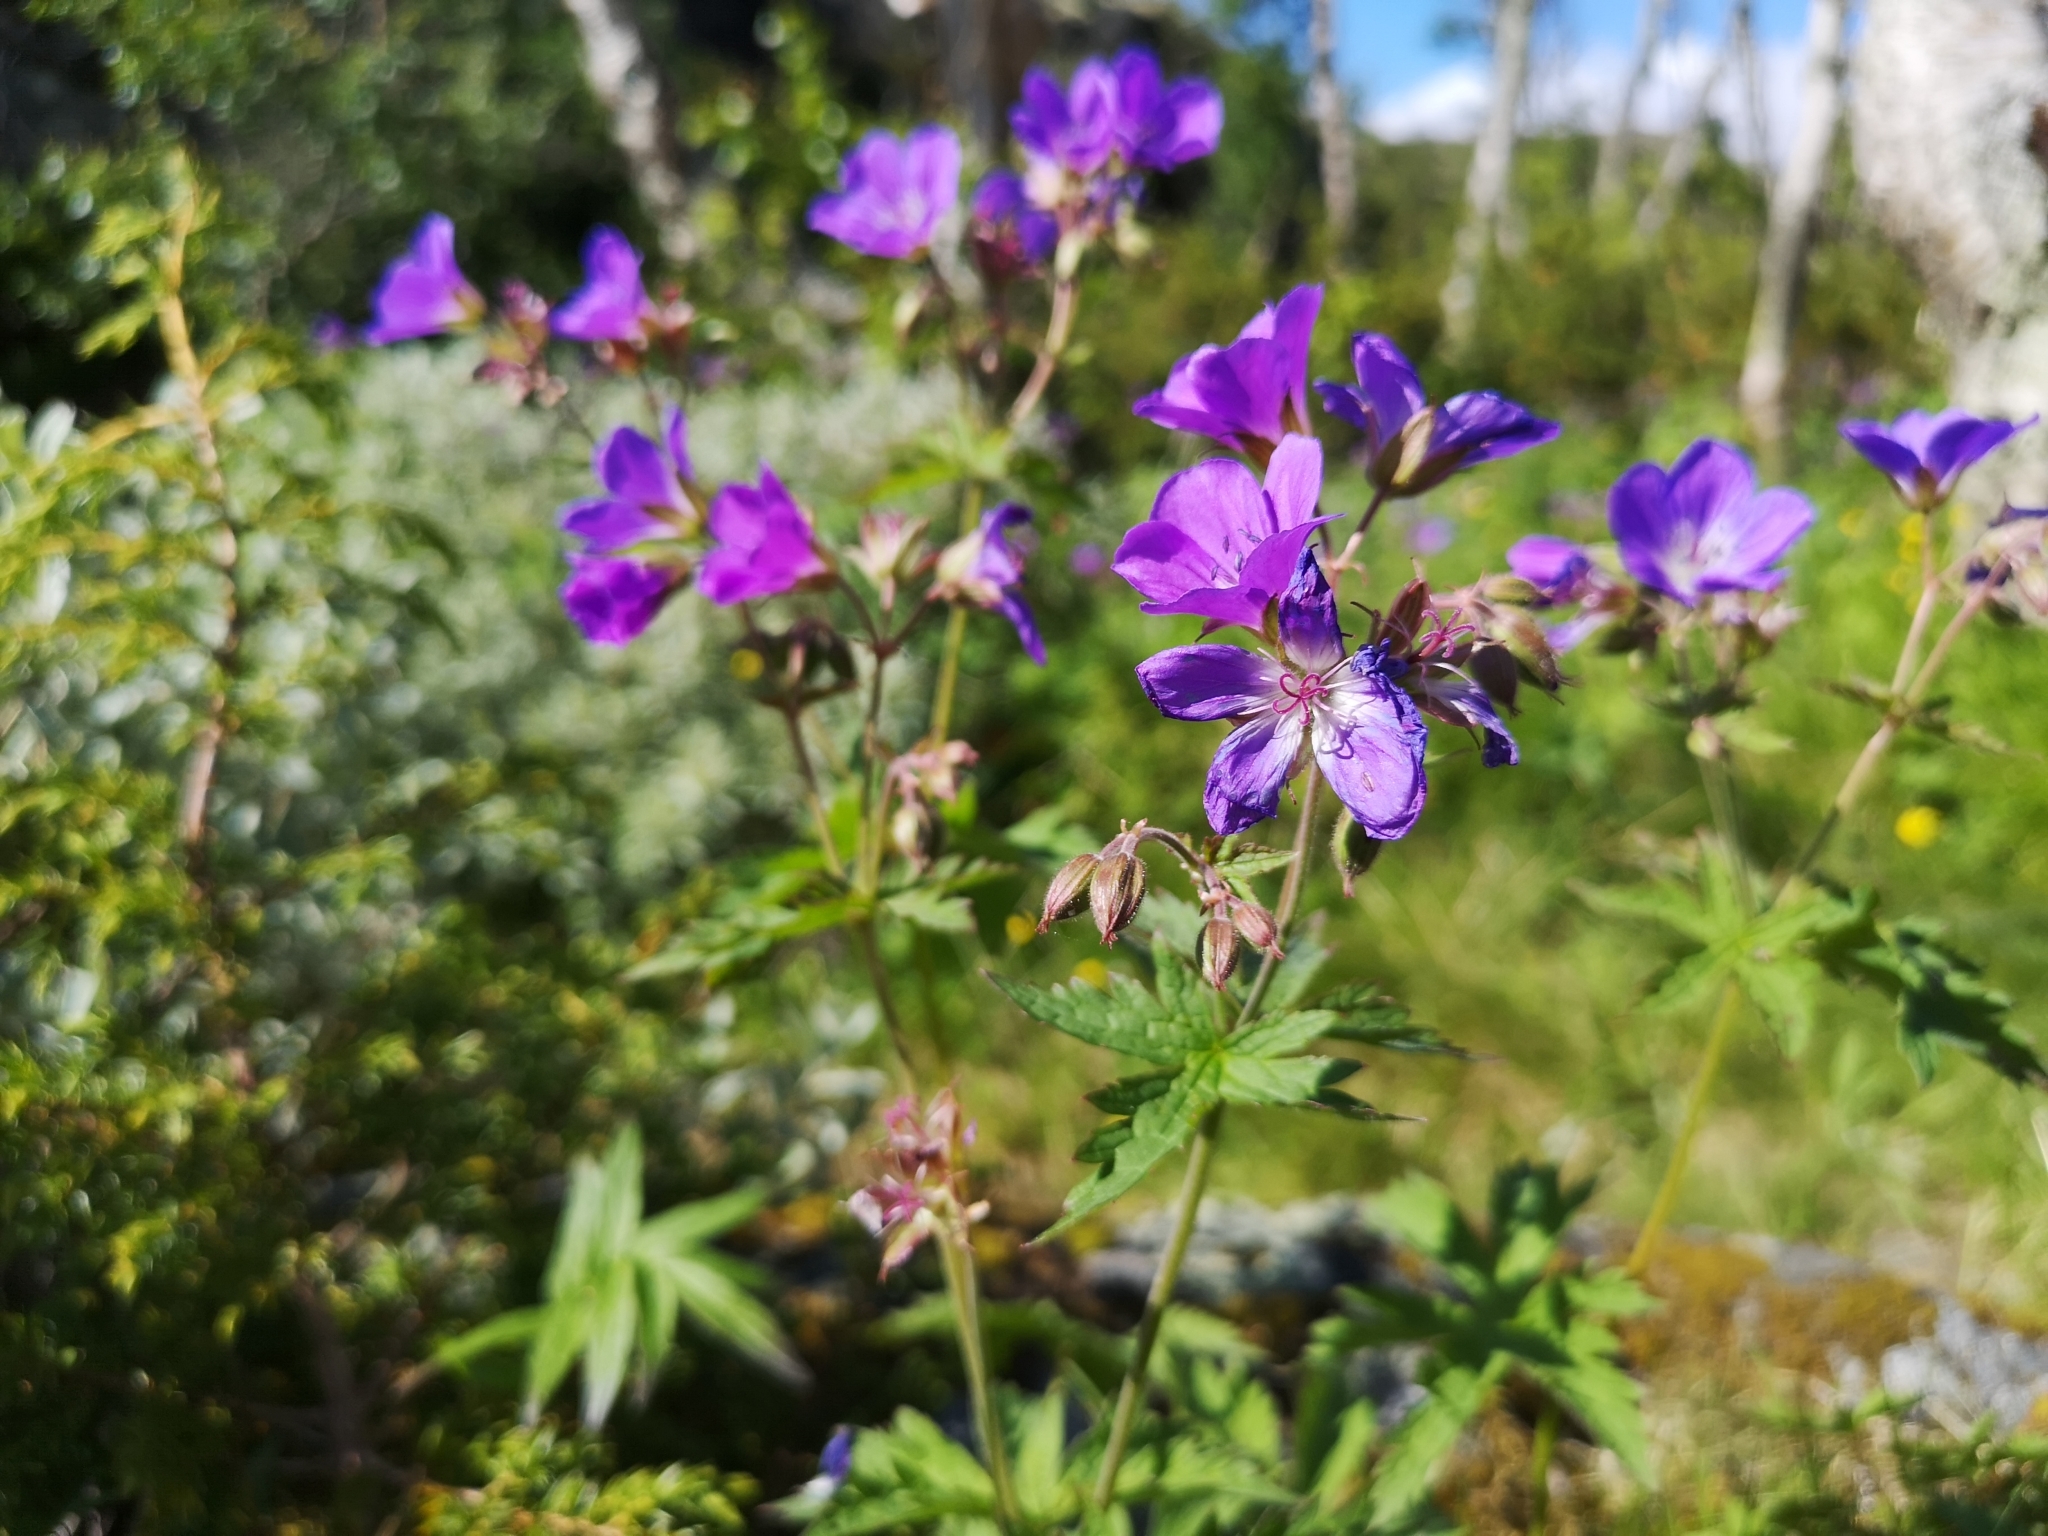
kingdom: Plantae
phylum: Tracheophyta
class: Magnoliopsida
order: Geraniales
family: Geraniaceae
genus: Geranium
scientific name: Geranium sylvaticum
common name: Wood crane's-bill
